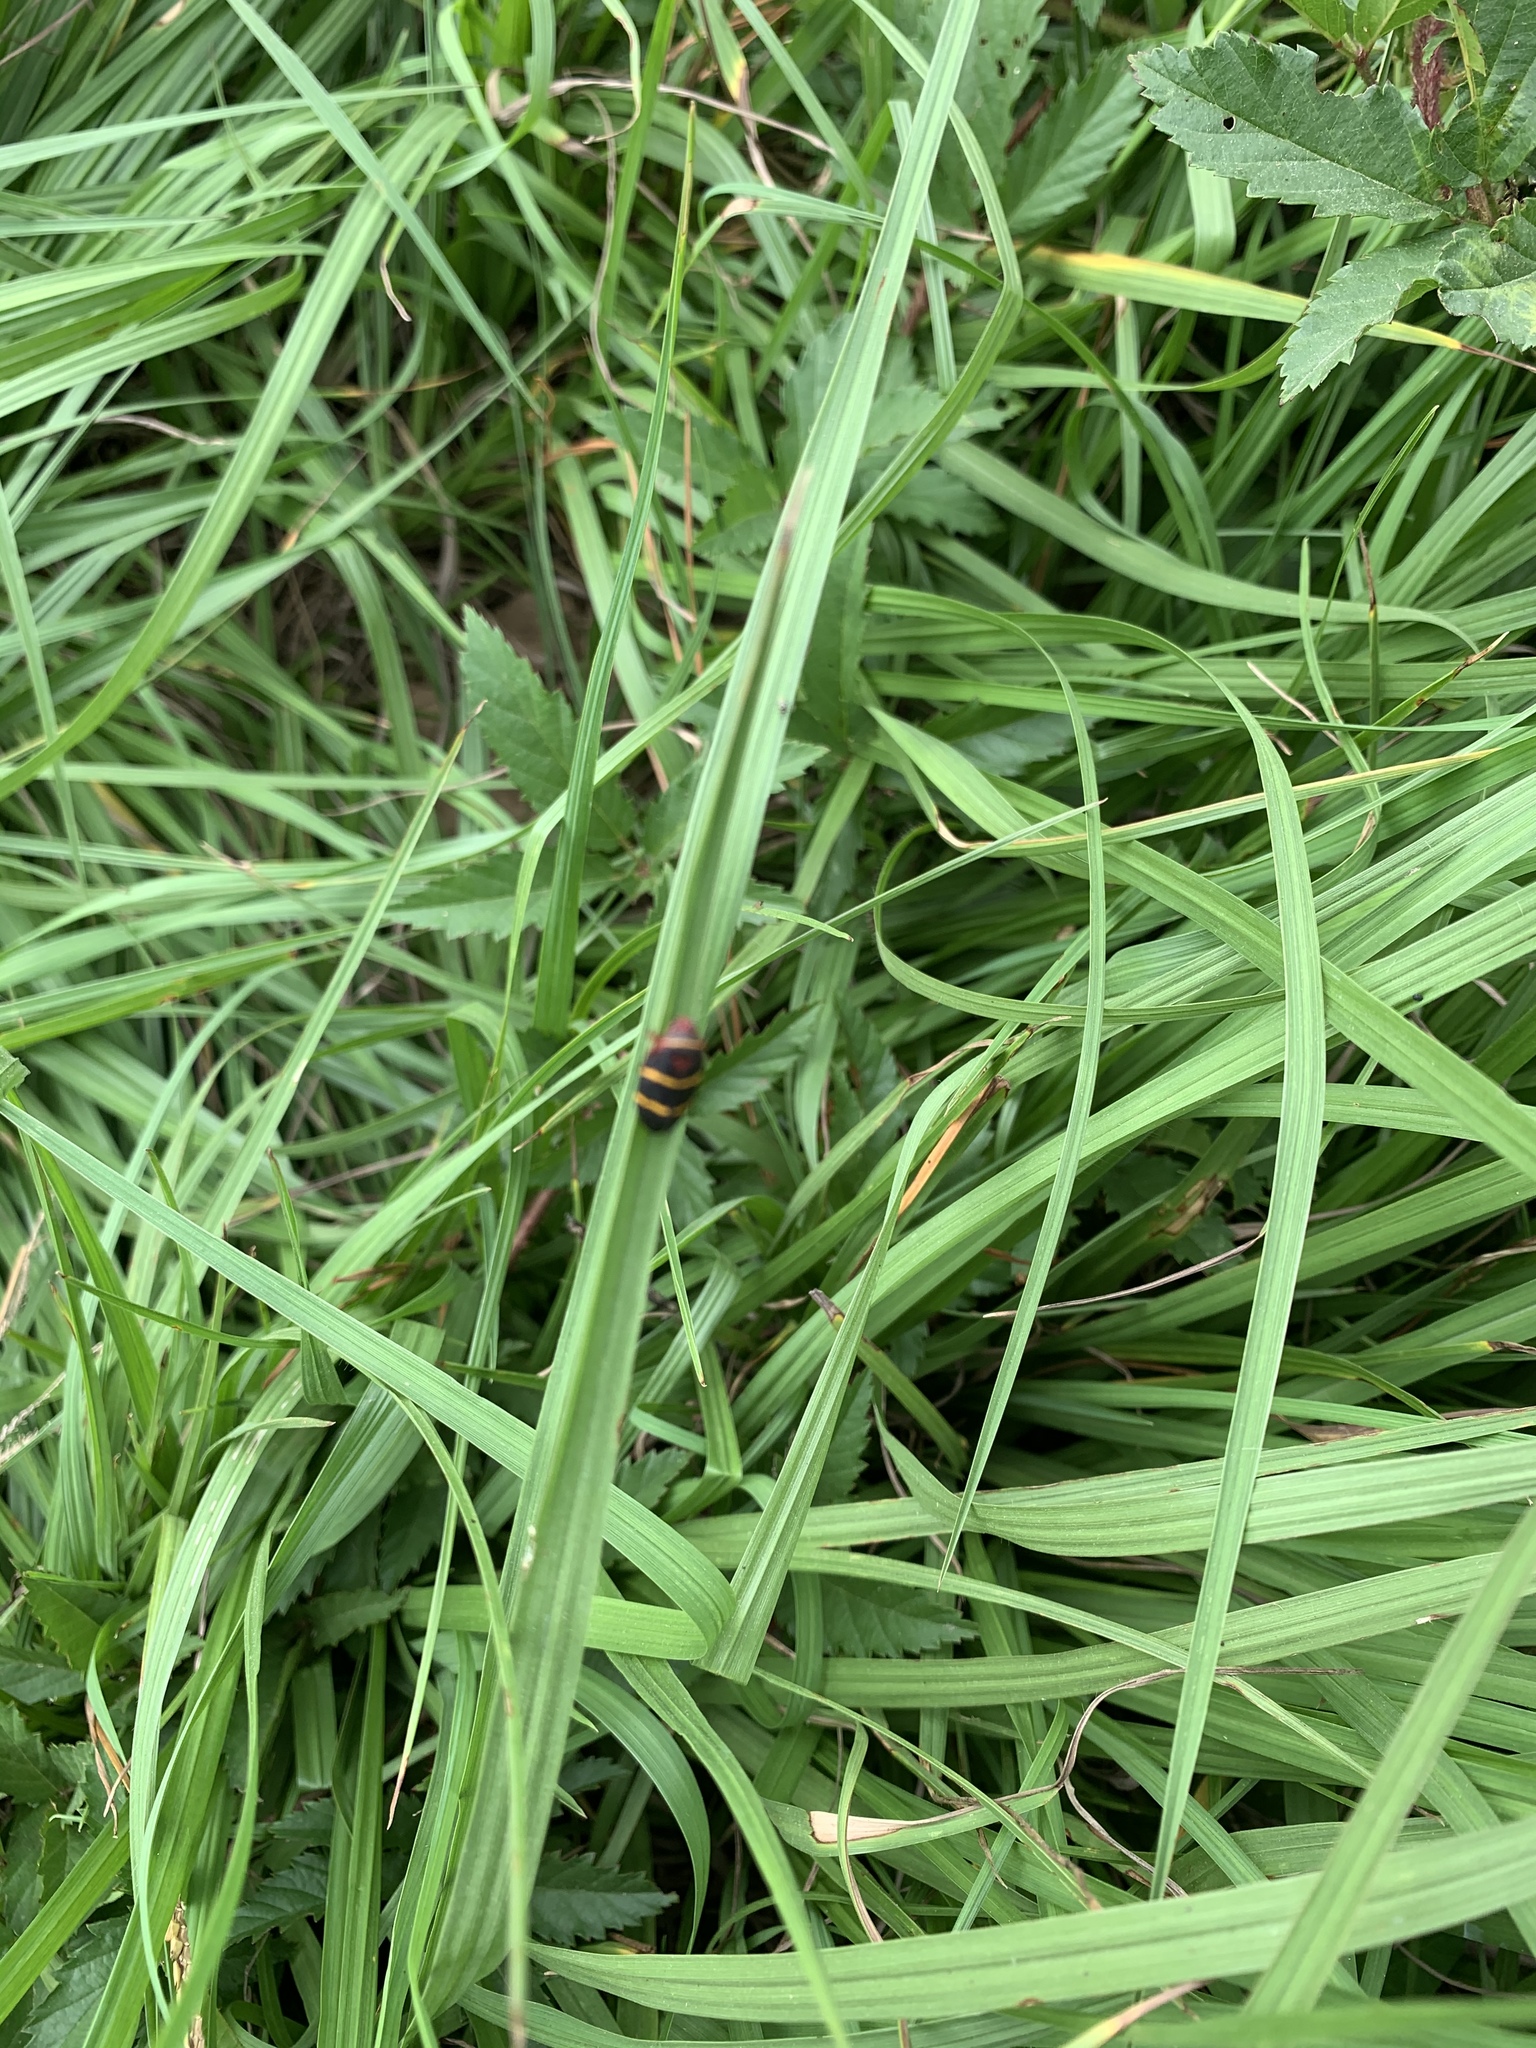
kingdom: Animalia
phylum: Arthropoda
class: Insecta
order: Hemiptera
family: Cercopidae
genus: Prosapia
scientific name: Prosapia bicincta
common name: Twolined spittlebug
